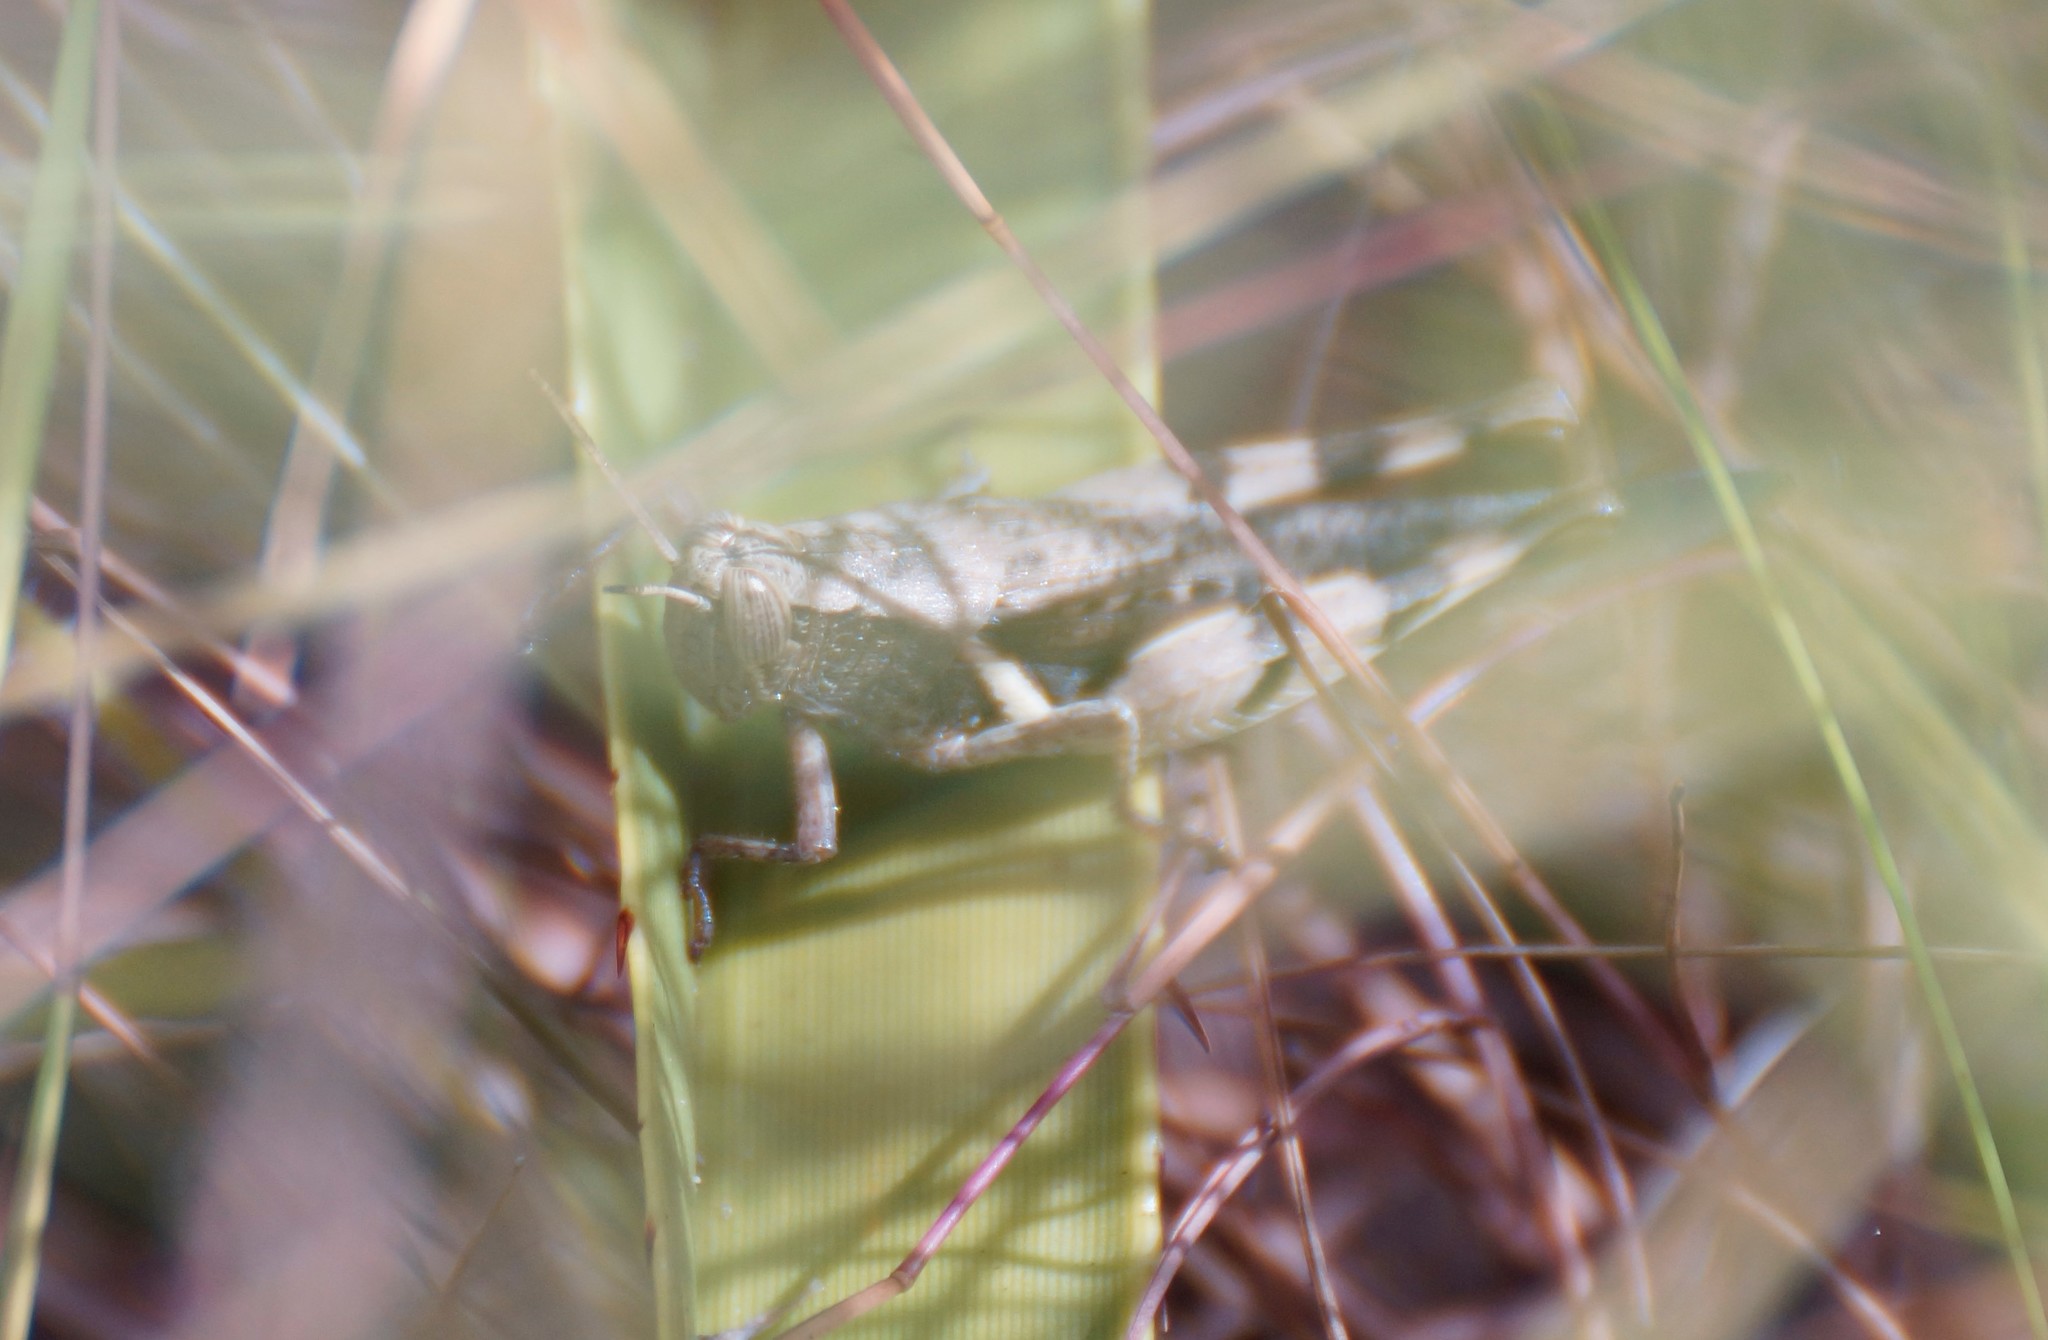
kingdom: Animalia
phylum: Arthropoda
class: Insecta
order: Orthoptera
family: Acrididae
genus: Stenocatantops
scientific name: Stenocatantops angustifrons
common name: Common tropical sharptail
